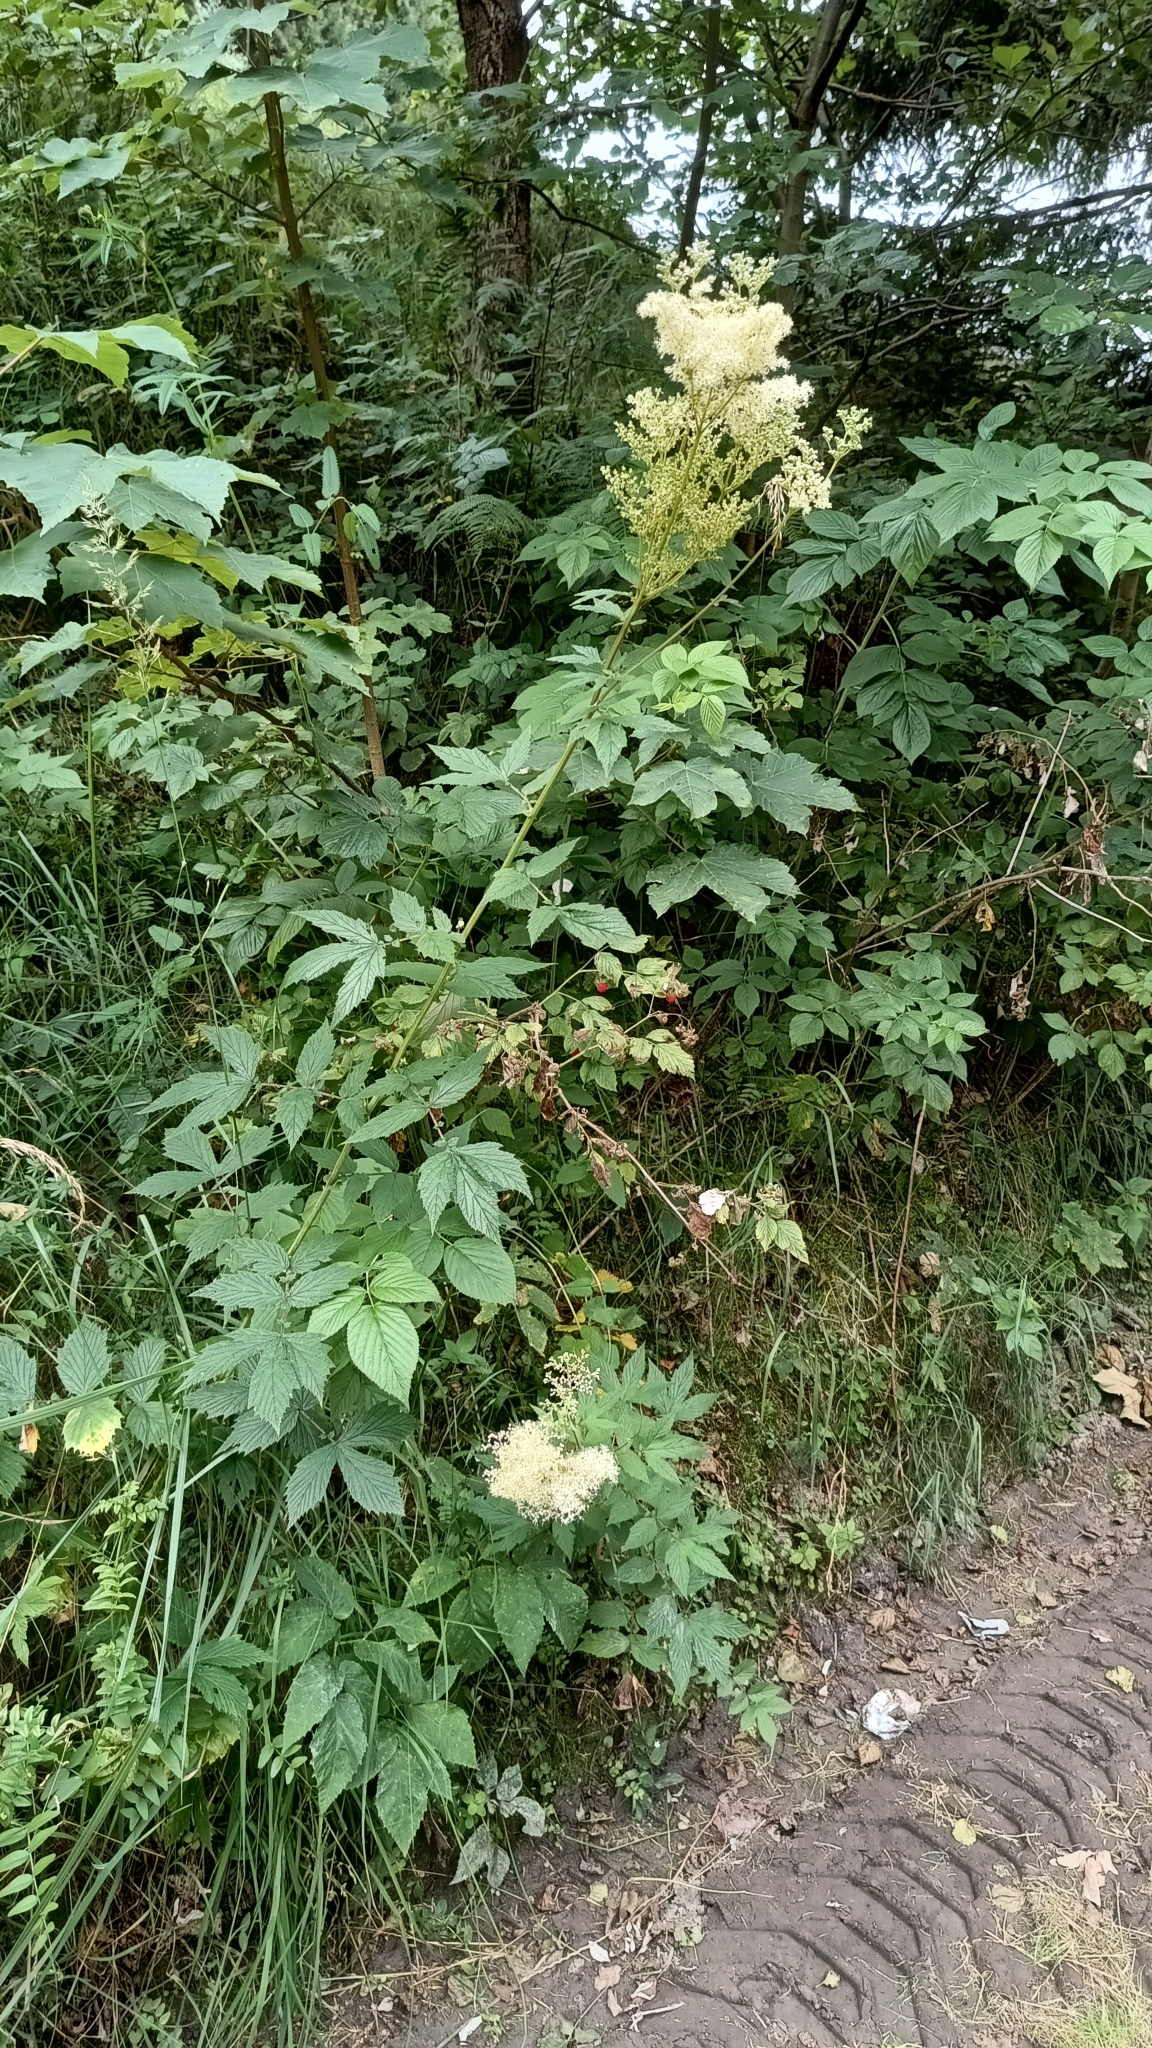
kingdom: Plantae
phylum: Tracheophyta
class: Magnoliopsida
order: Rosales
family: Rosaceae
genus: Filipendula
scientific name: Filipendula ulmaria
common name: Meadowsweet
